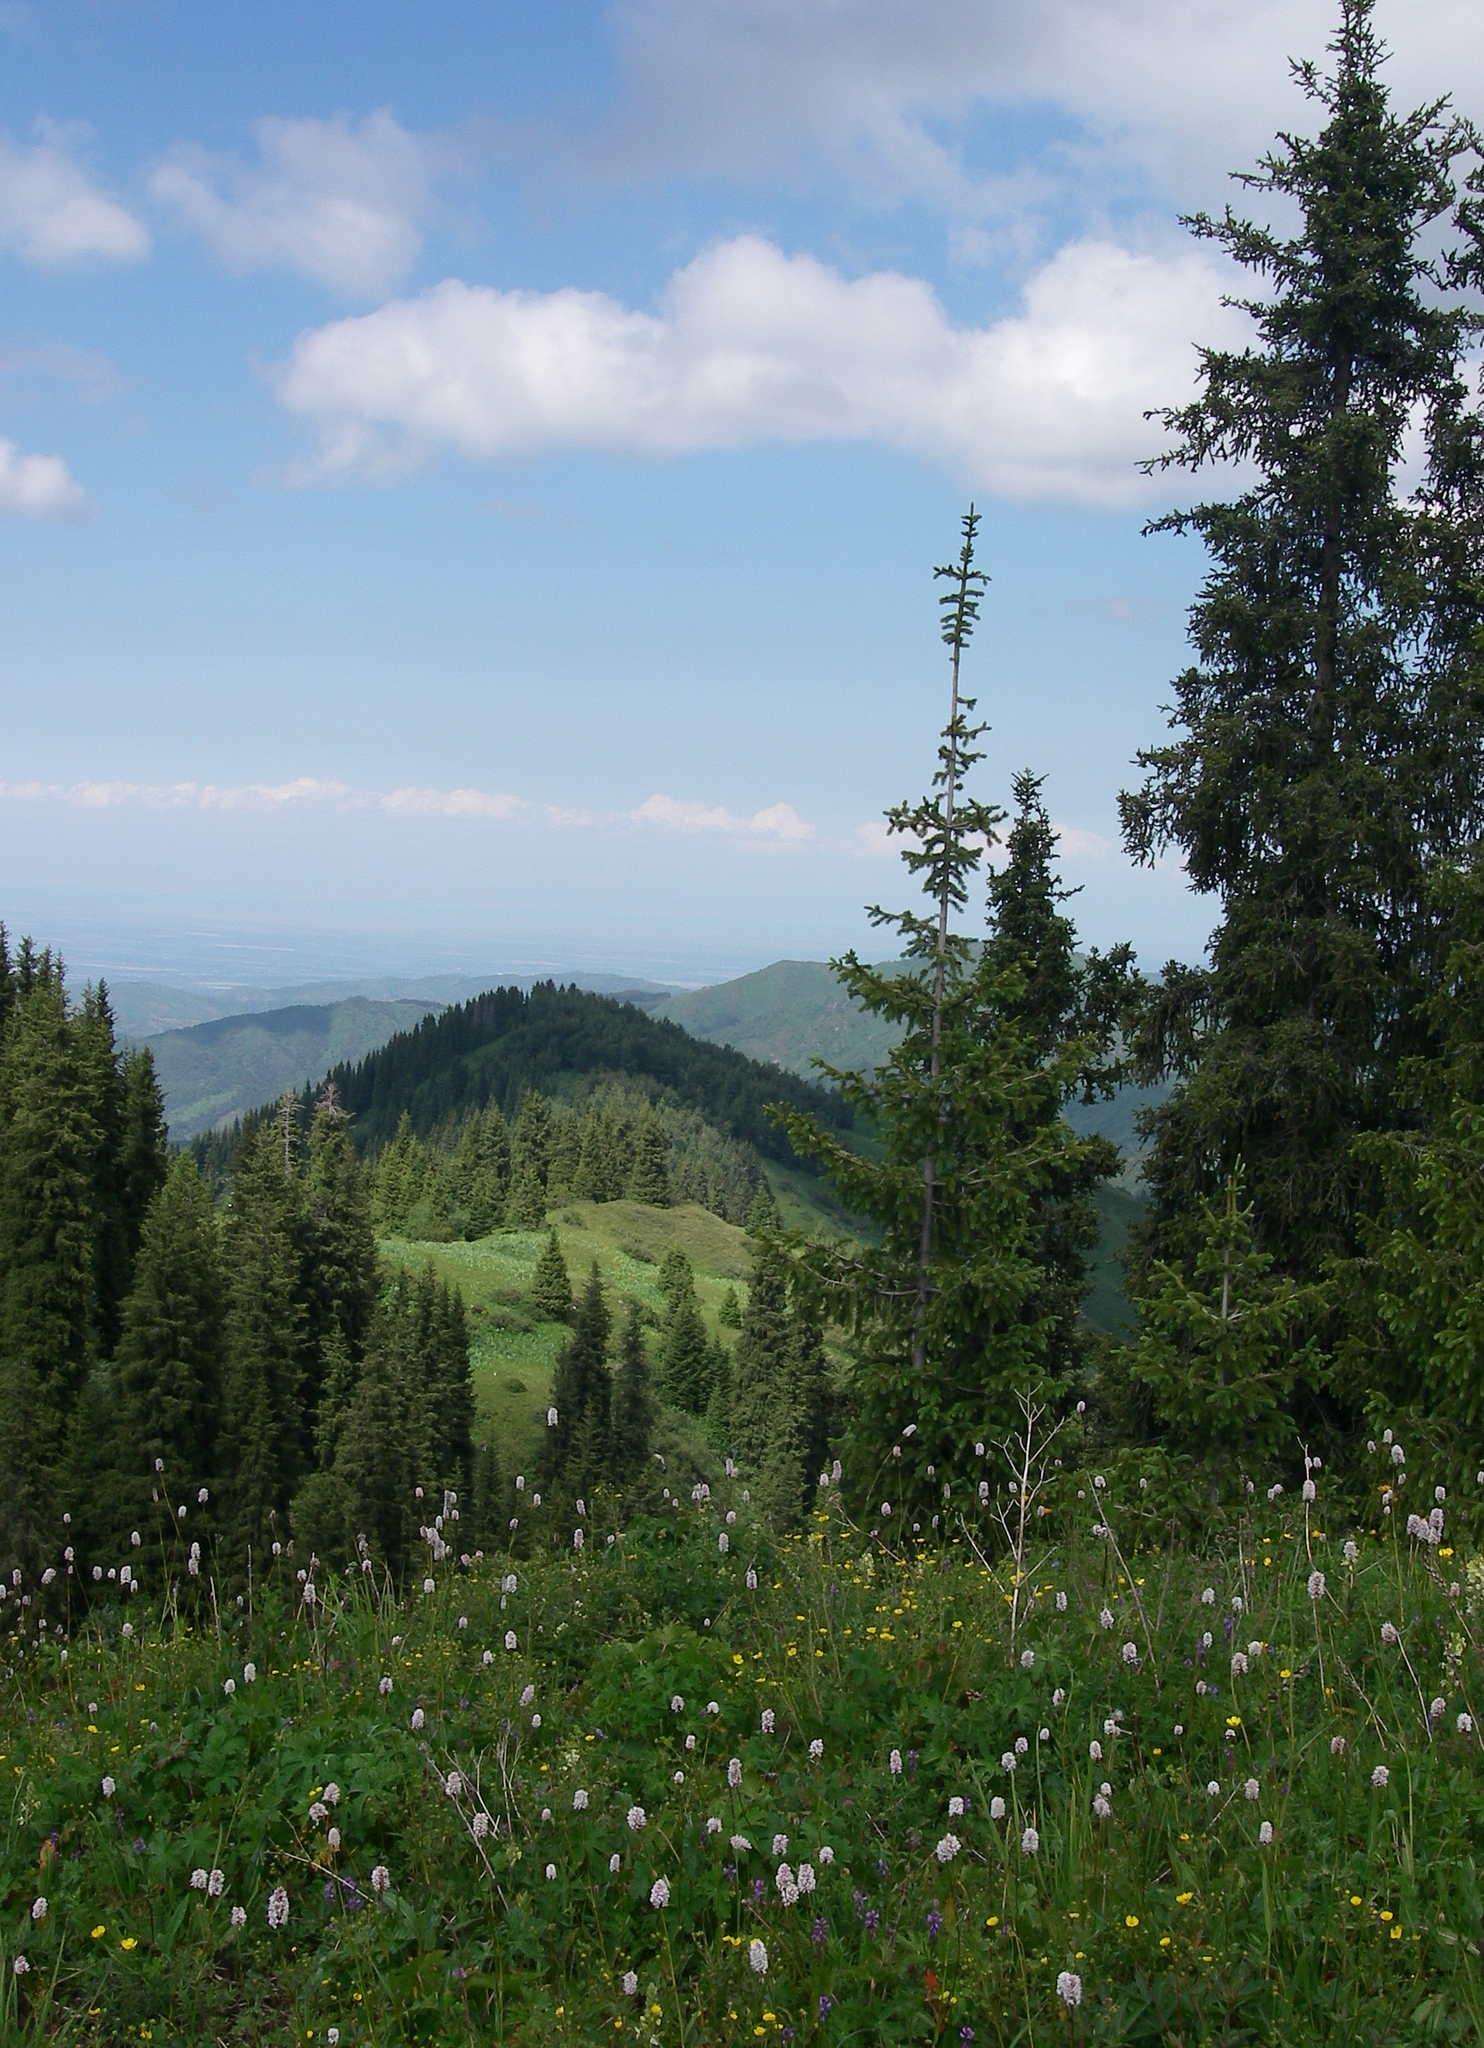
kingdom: Plantae
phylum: Tracheophyta
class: Pinopsida
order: Pinales
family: Pinaceae
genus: Picea
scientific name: Picea schrenkiana
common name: Asian spruce
